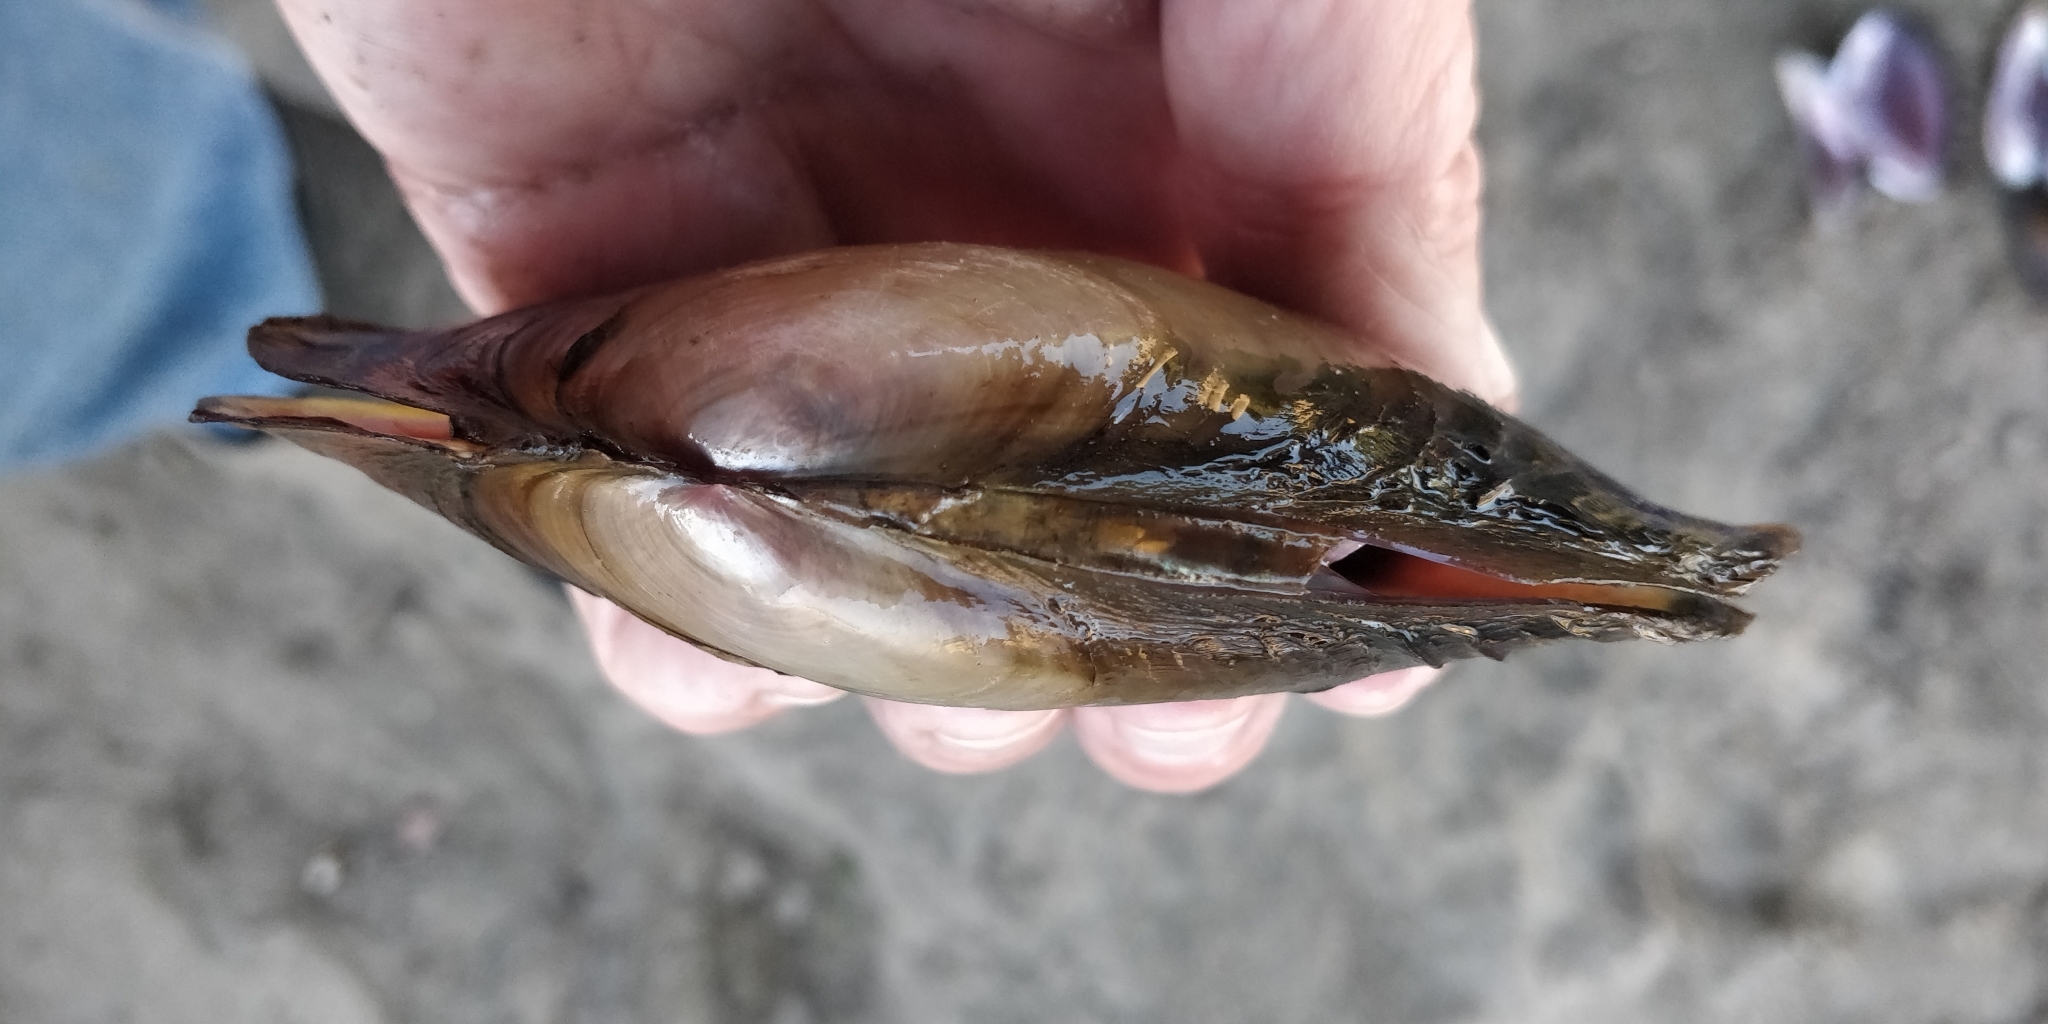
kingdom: Animalia
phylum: Mollusca
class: Bivalvia
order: Unionida
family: Unionidae
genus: Potamilus
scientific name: Potamilus ohiensis
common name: Pink papershell
